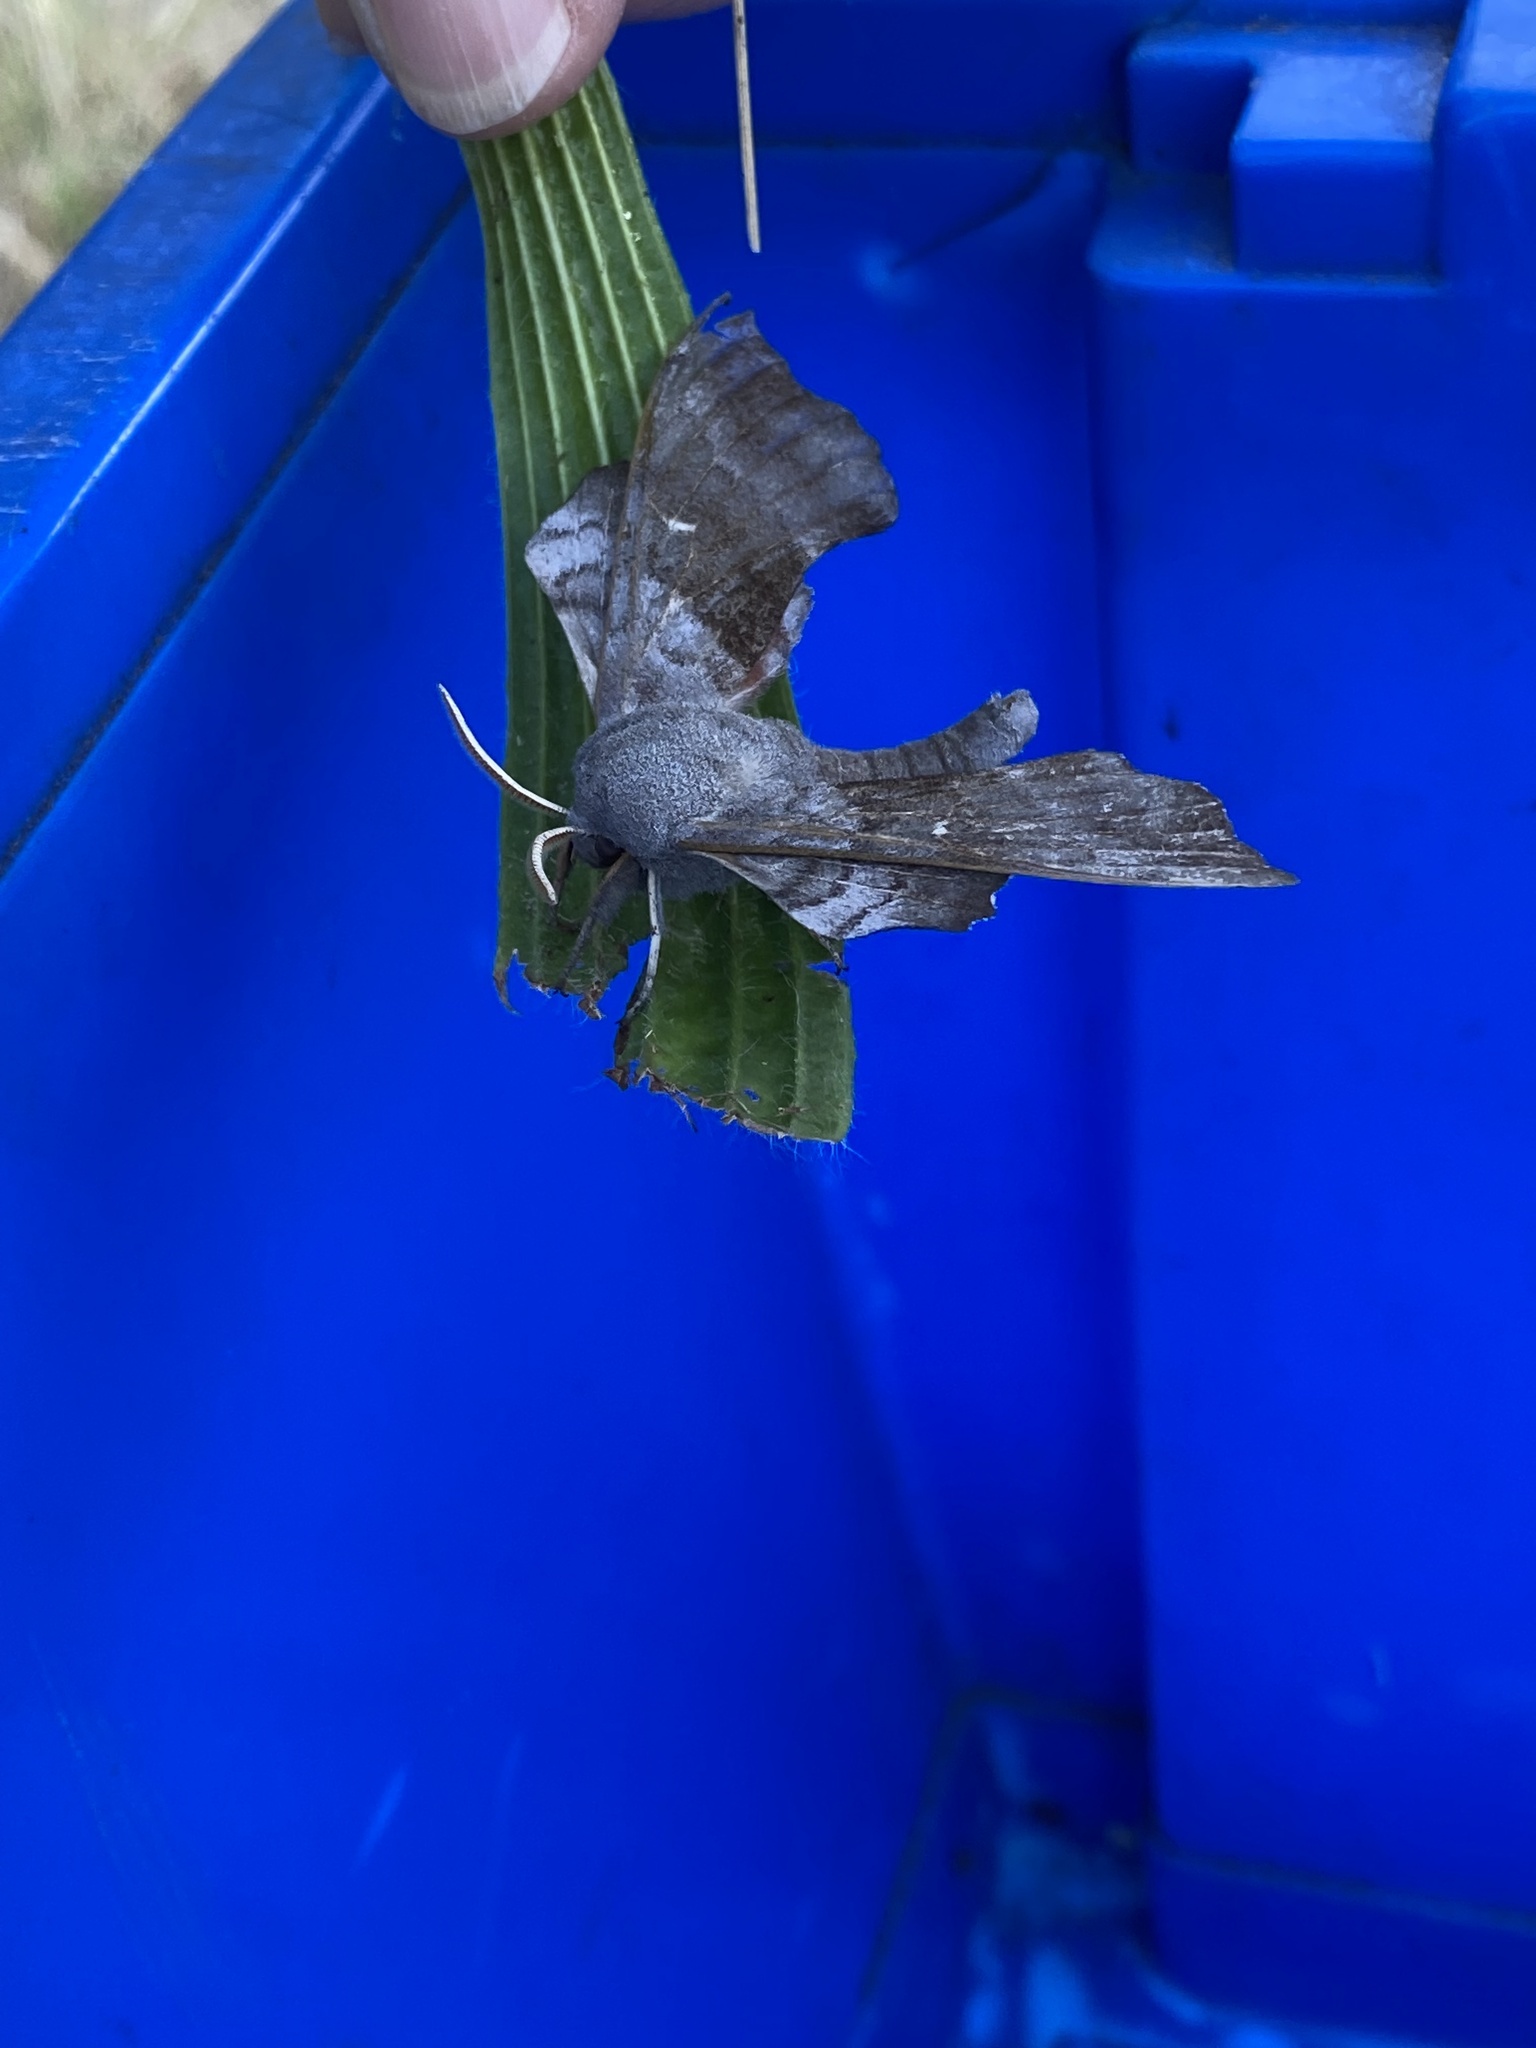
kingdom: Animalia
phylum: Arthropoda
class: Insecta
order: Lepidoptera
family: Sphingidae
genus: Laothoe
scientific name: Laothoe populi
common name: Poplar hawk-moth
